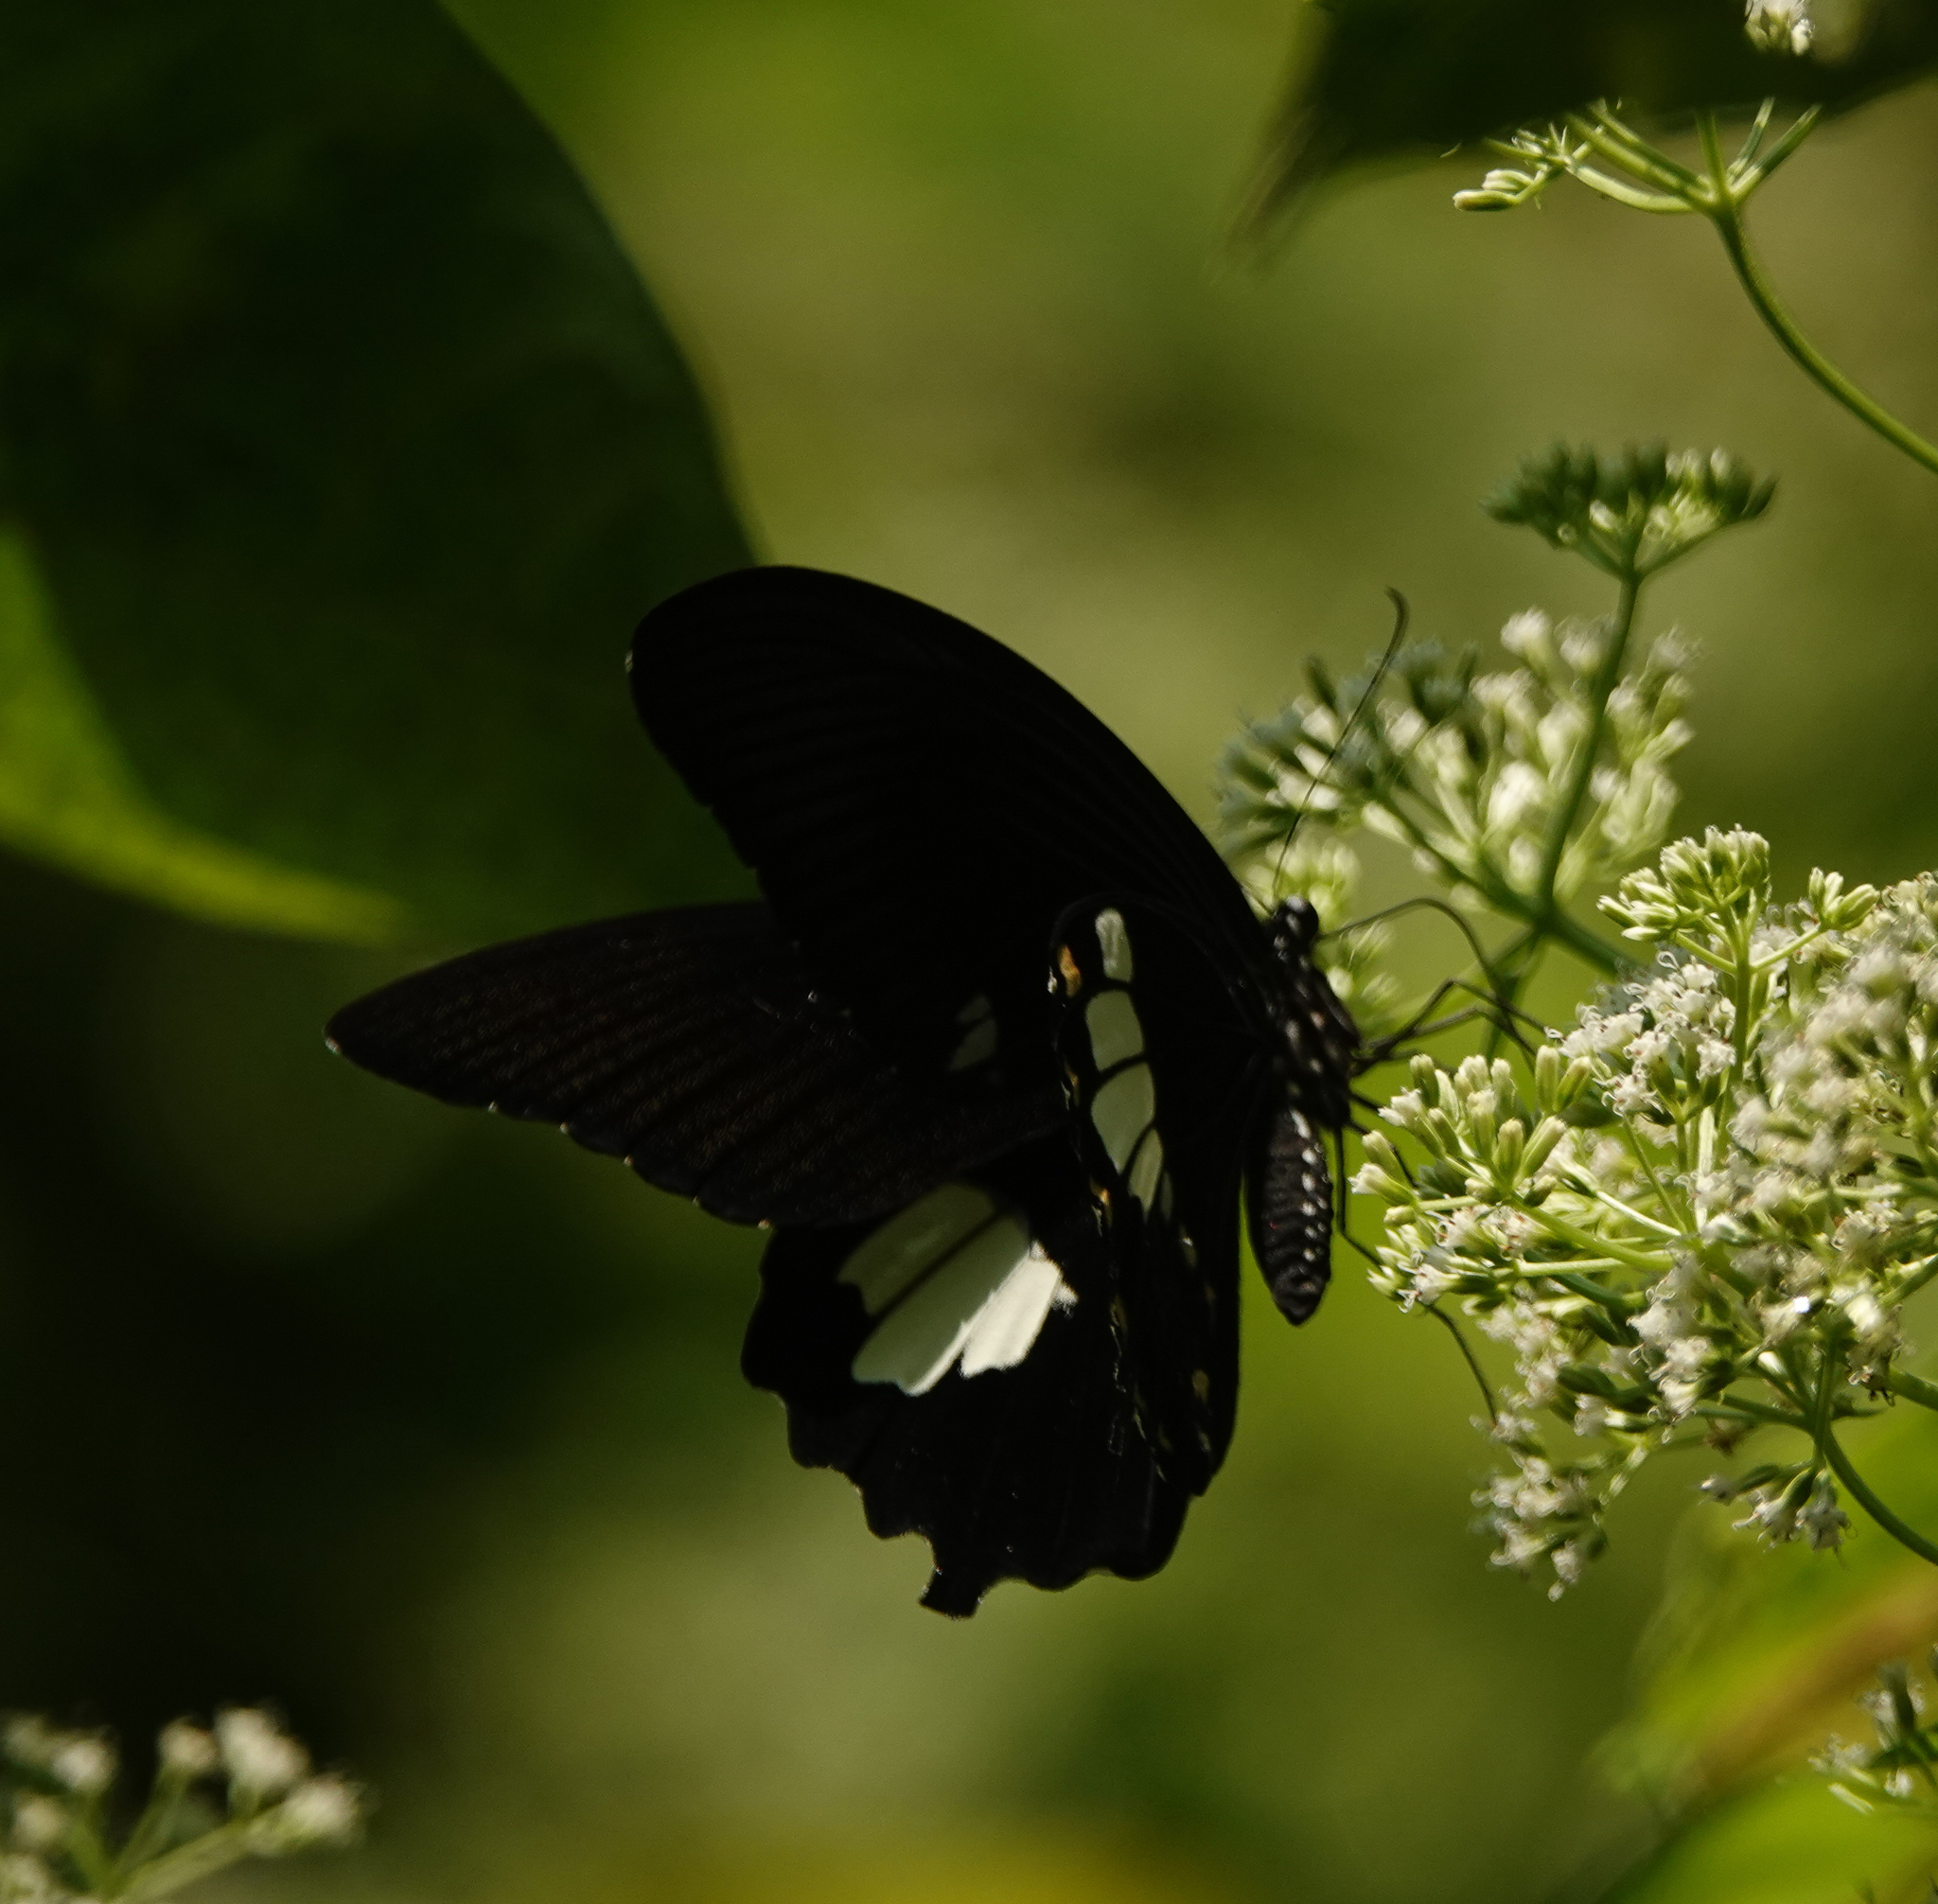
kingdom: Animalia
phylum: Arthropoda
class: Insecta
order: Lepidoptera
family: Papilionidae
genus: Papilio
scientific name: Papilio nephelus
